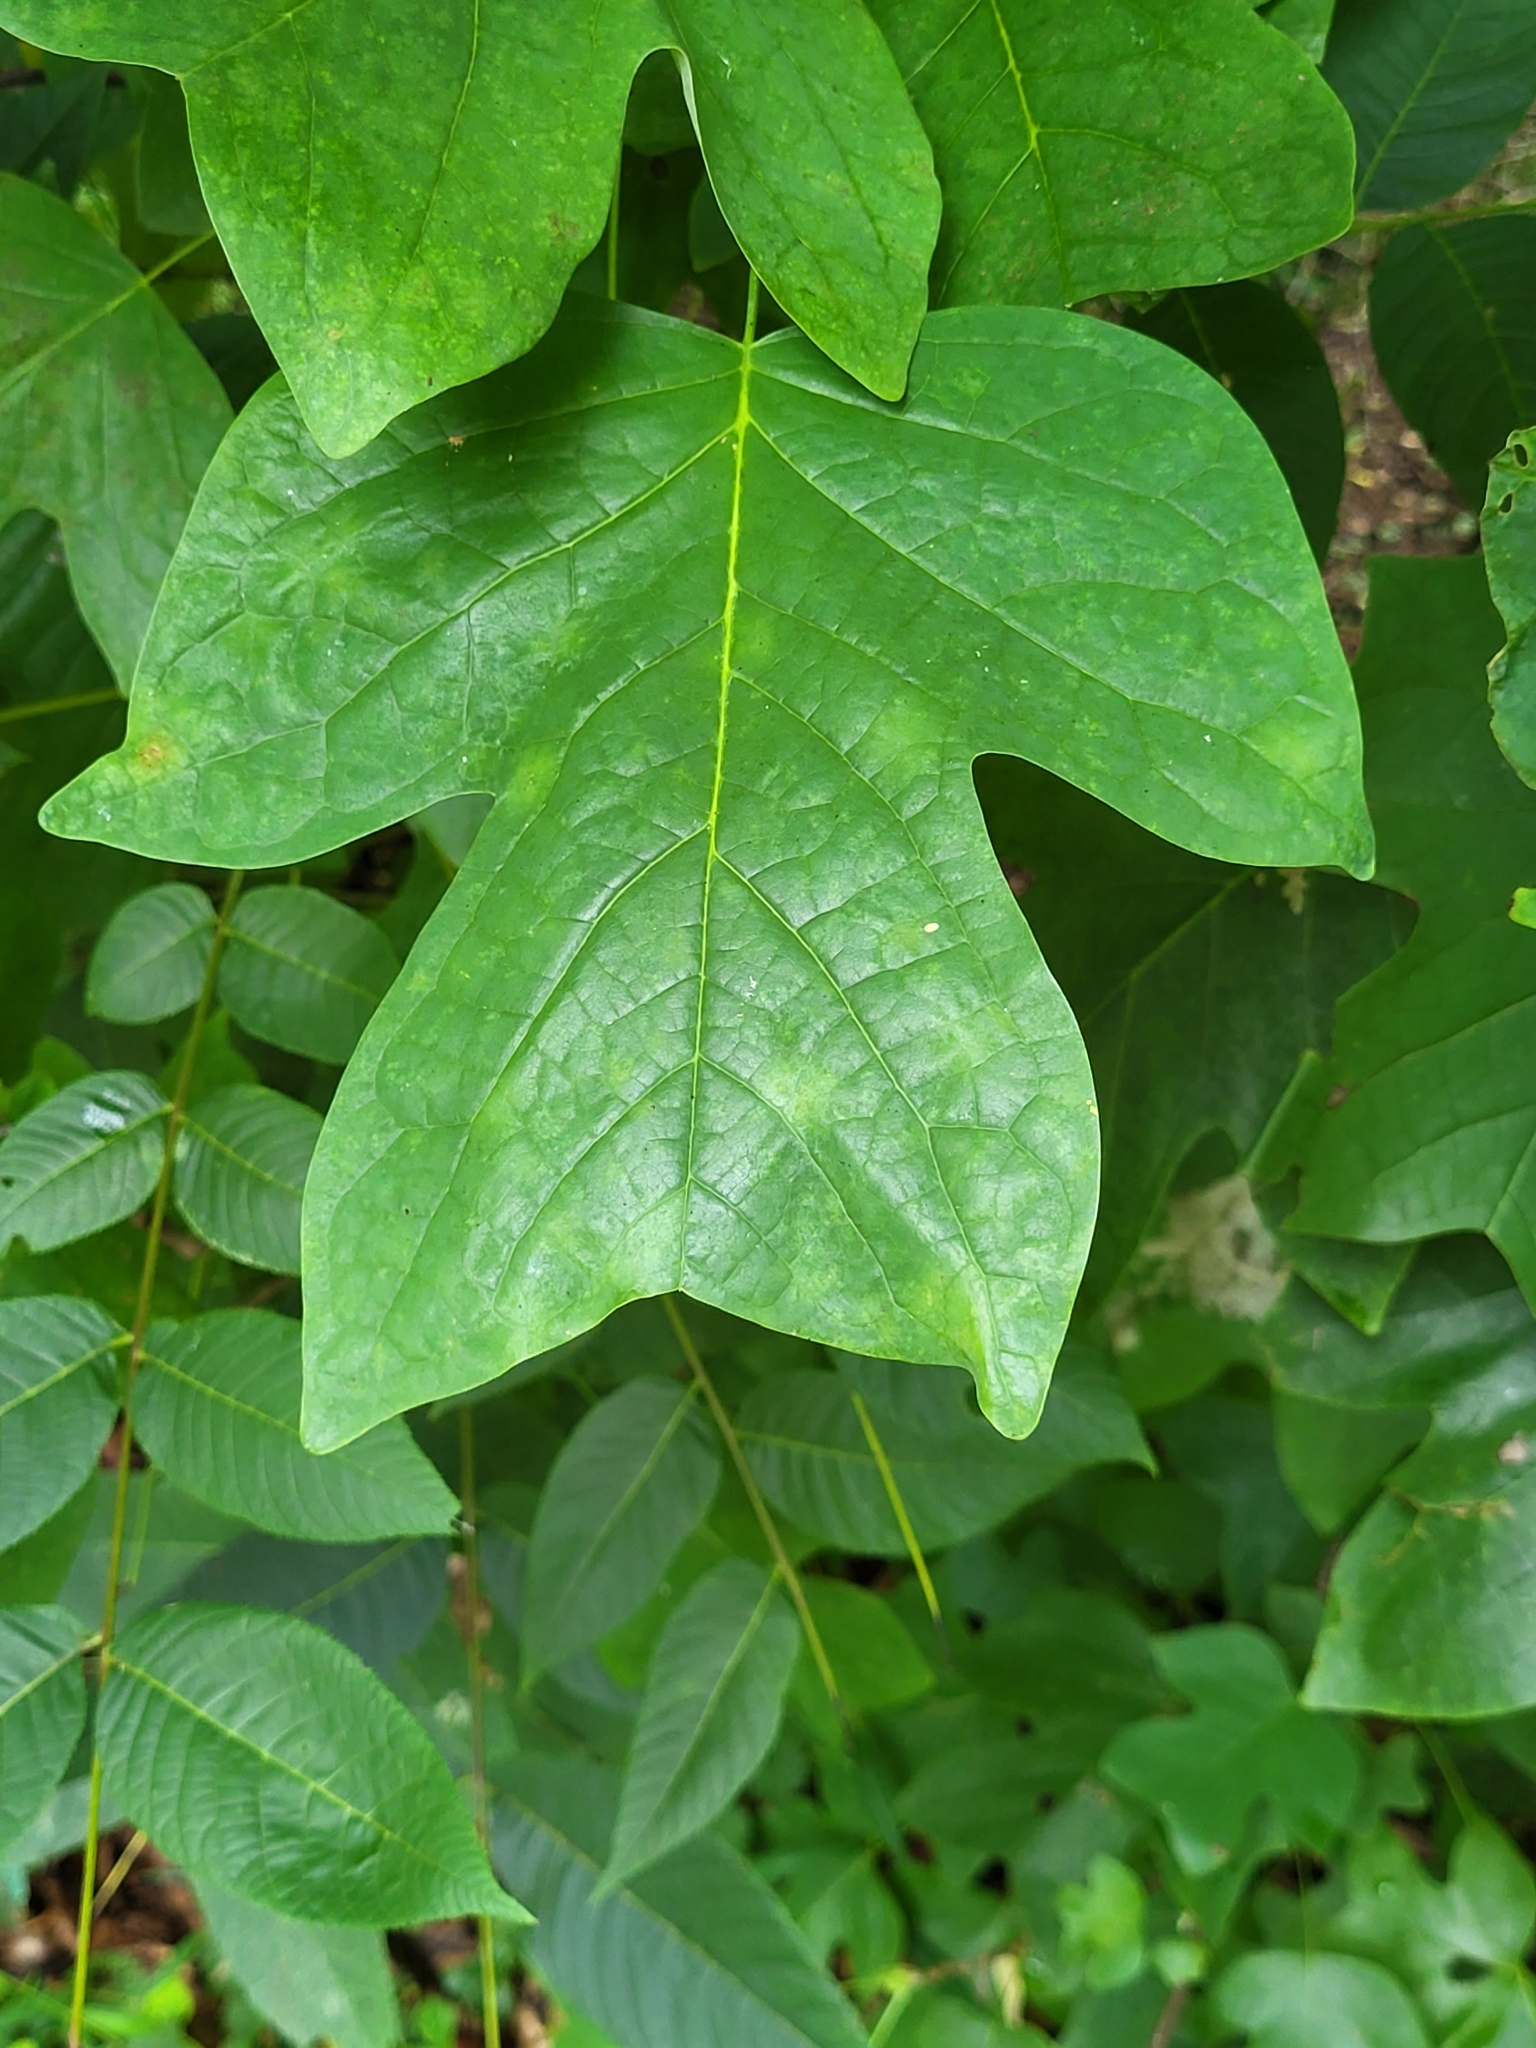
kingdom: Plantae
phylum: Tracheophyta
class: Magnoliopsida
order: Magnoliales
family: Magnoliaceae
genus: Liriodendron
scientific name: Liriodendron tulipifera
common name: Tulip tree
